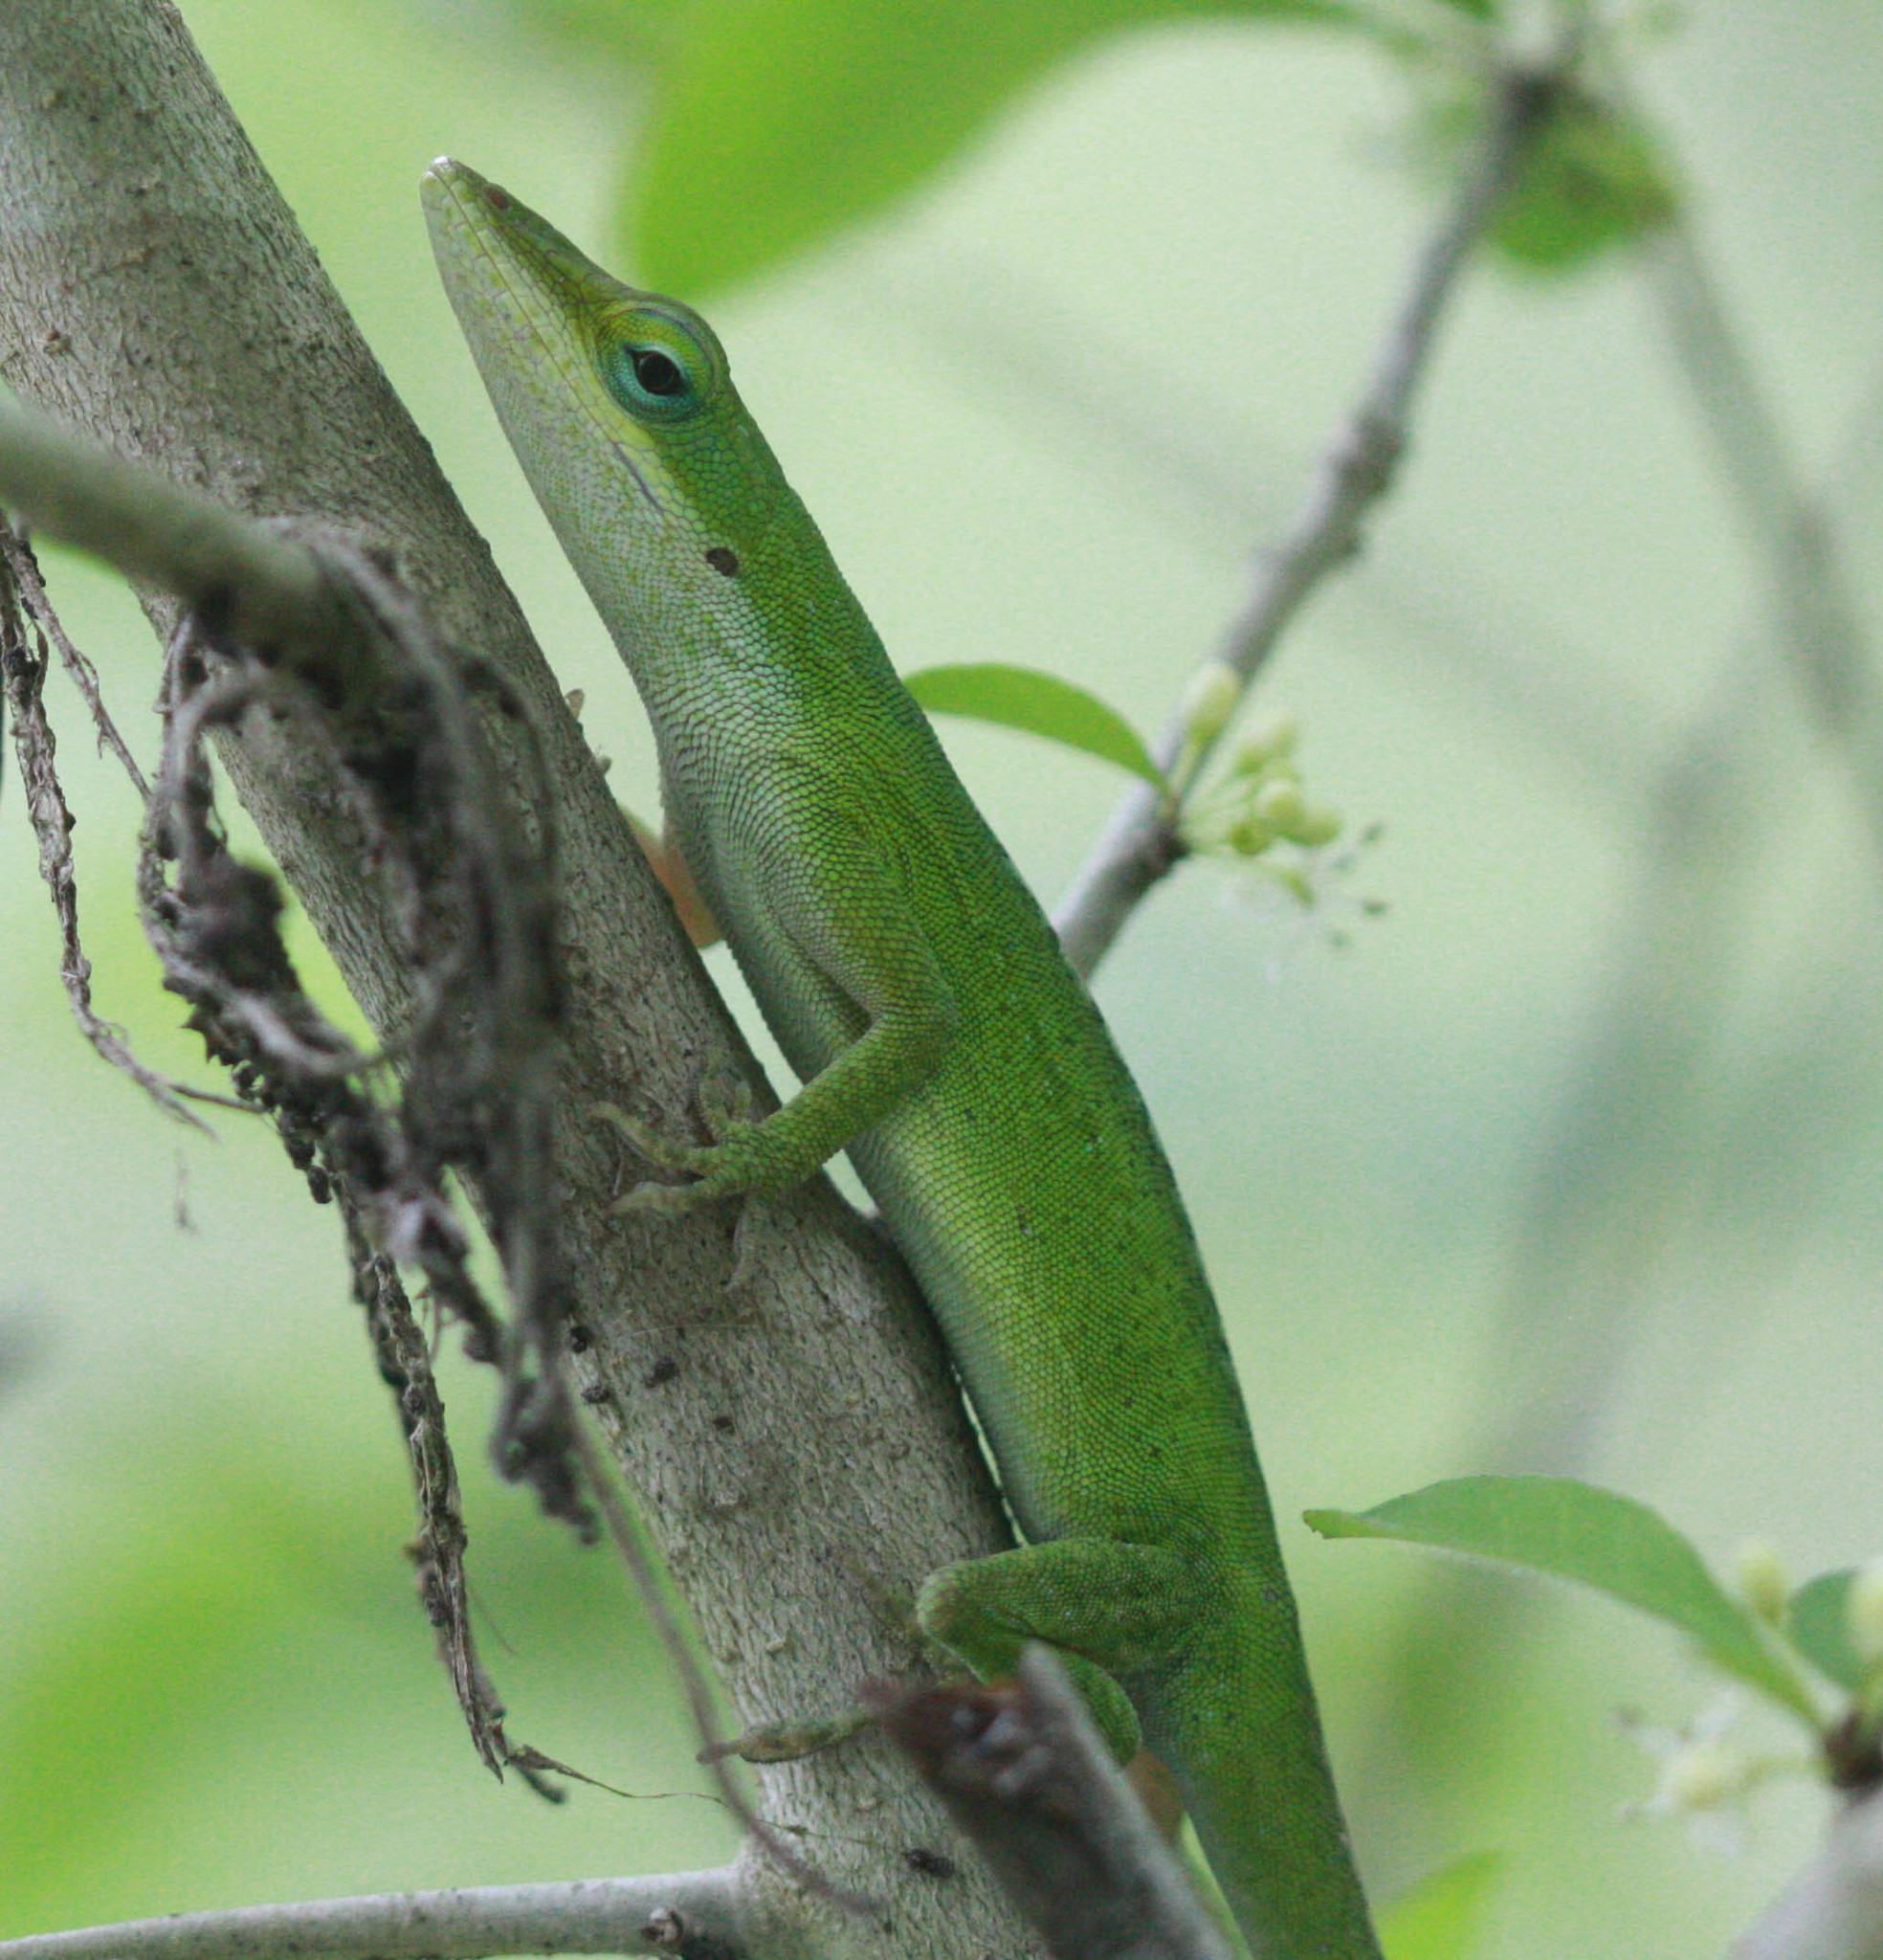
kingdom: Animalia
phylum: Chordata
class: Squamata
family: Dactyloidae
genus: Anolis
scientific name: Anolis carolinensis
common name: Green anole
